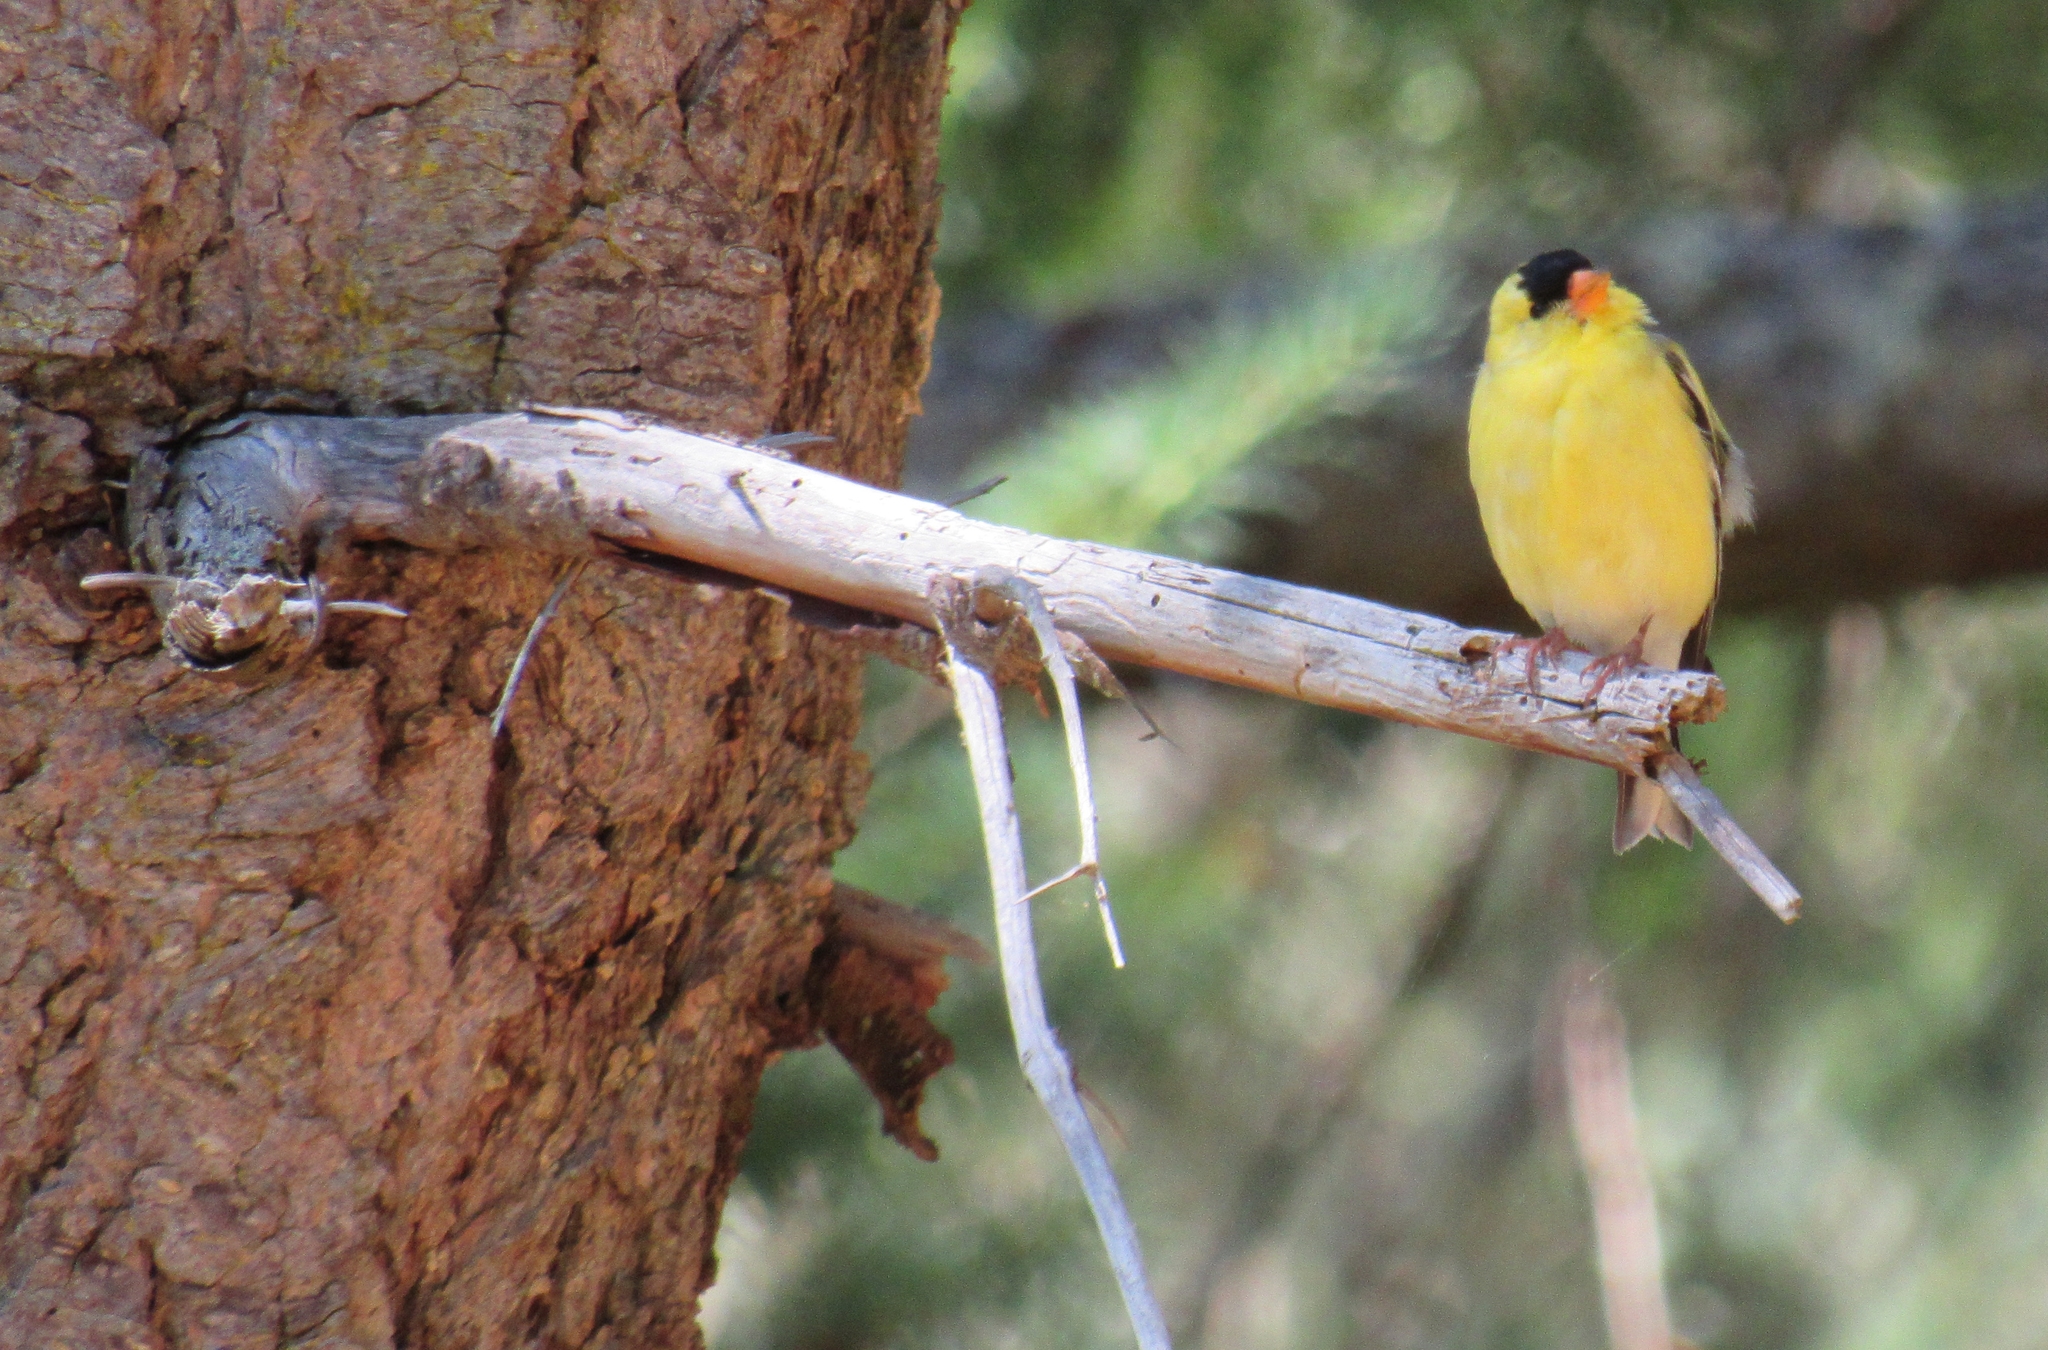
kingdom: Animalia
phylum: Chordata
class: Aves
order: Passeriformes
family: Fringillidae
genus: Spinus
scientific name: Spinus tristis
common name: American goldfinch
